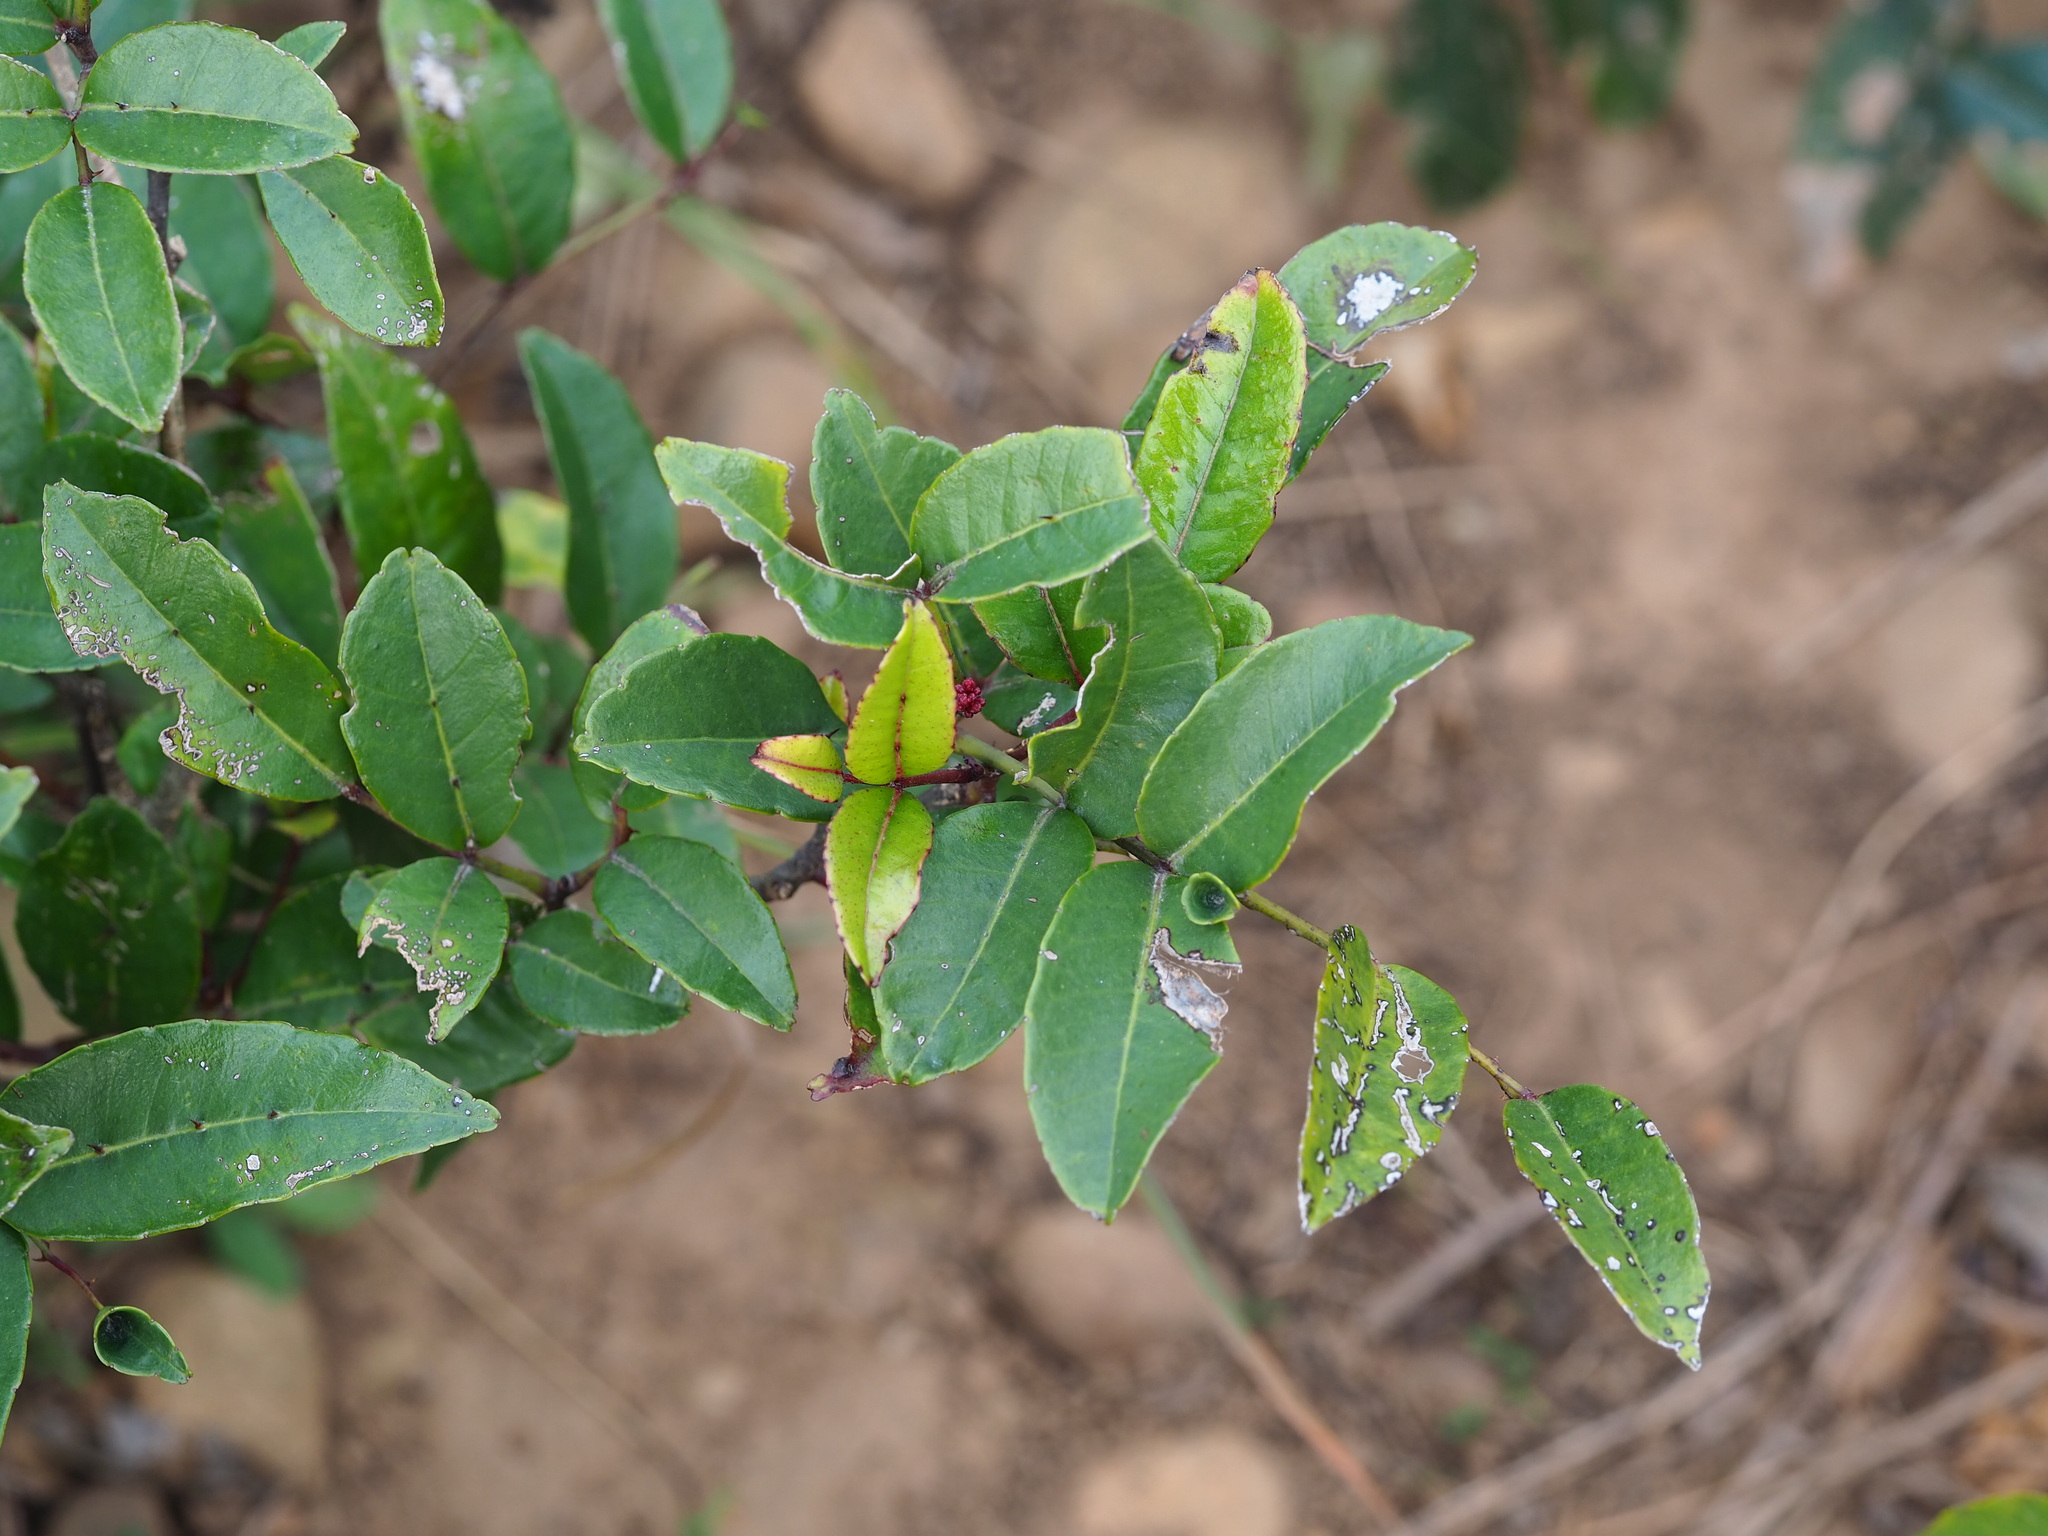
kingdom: Plantae
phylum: Tracheophyta
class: Magnoliopsida
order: Sapindales
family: Rutaceae
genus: Zanthoxylum
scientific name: Zanthoxylum nitidum
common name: Shiny-leaf prickly-ash
